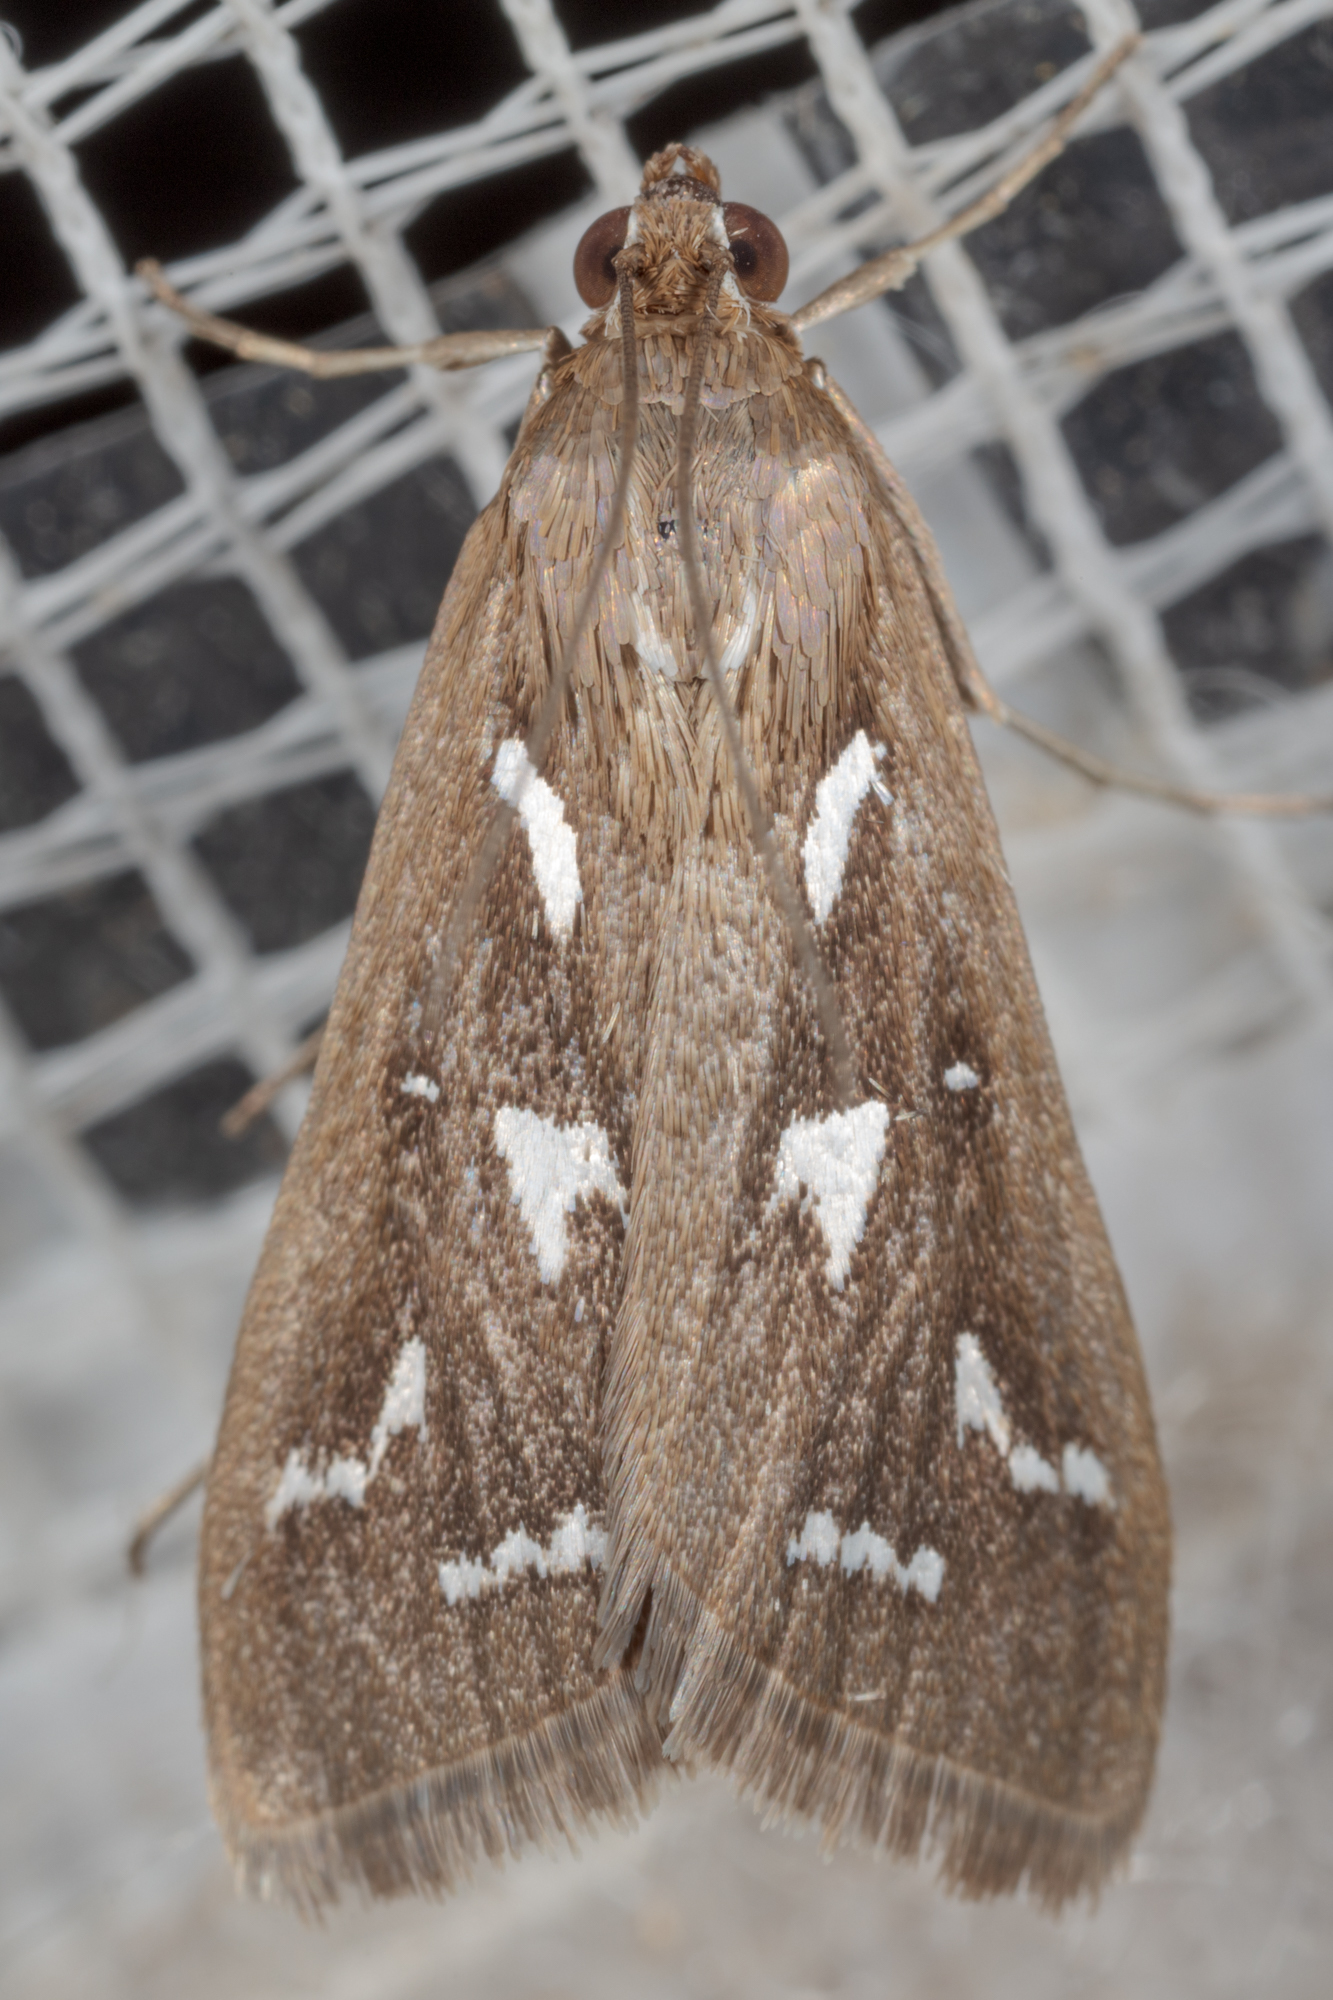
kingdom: Animalia
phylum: Arthropoda
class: Insecta
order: Lepidoptera
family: Crambidae
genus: Diastictis
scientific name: Diastictis fracturalis
